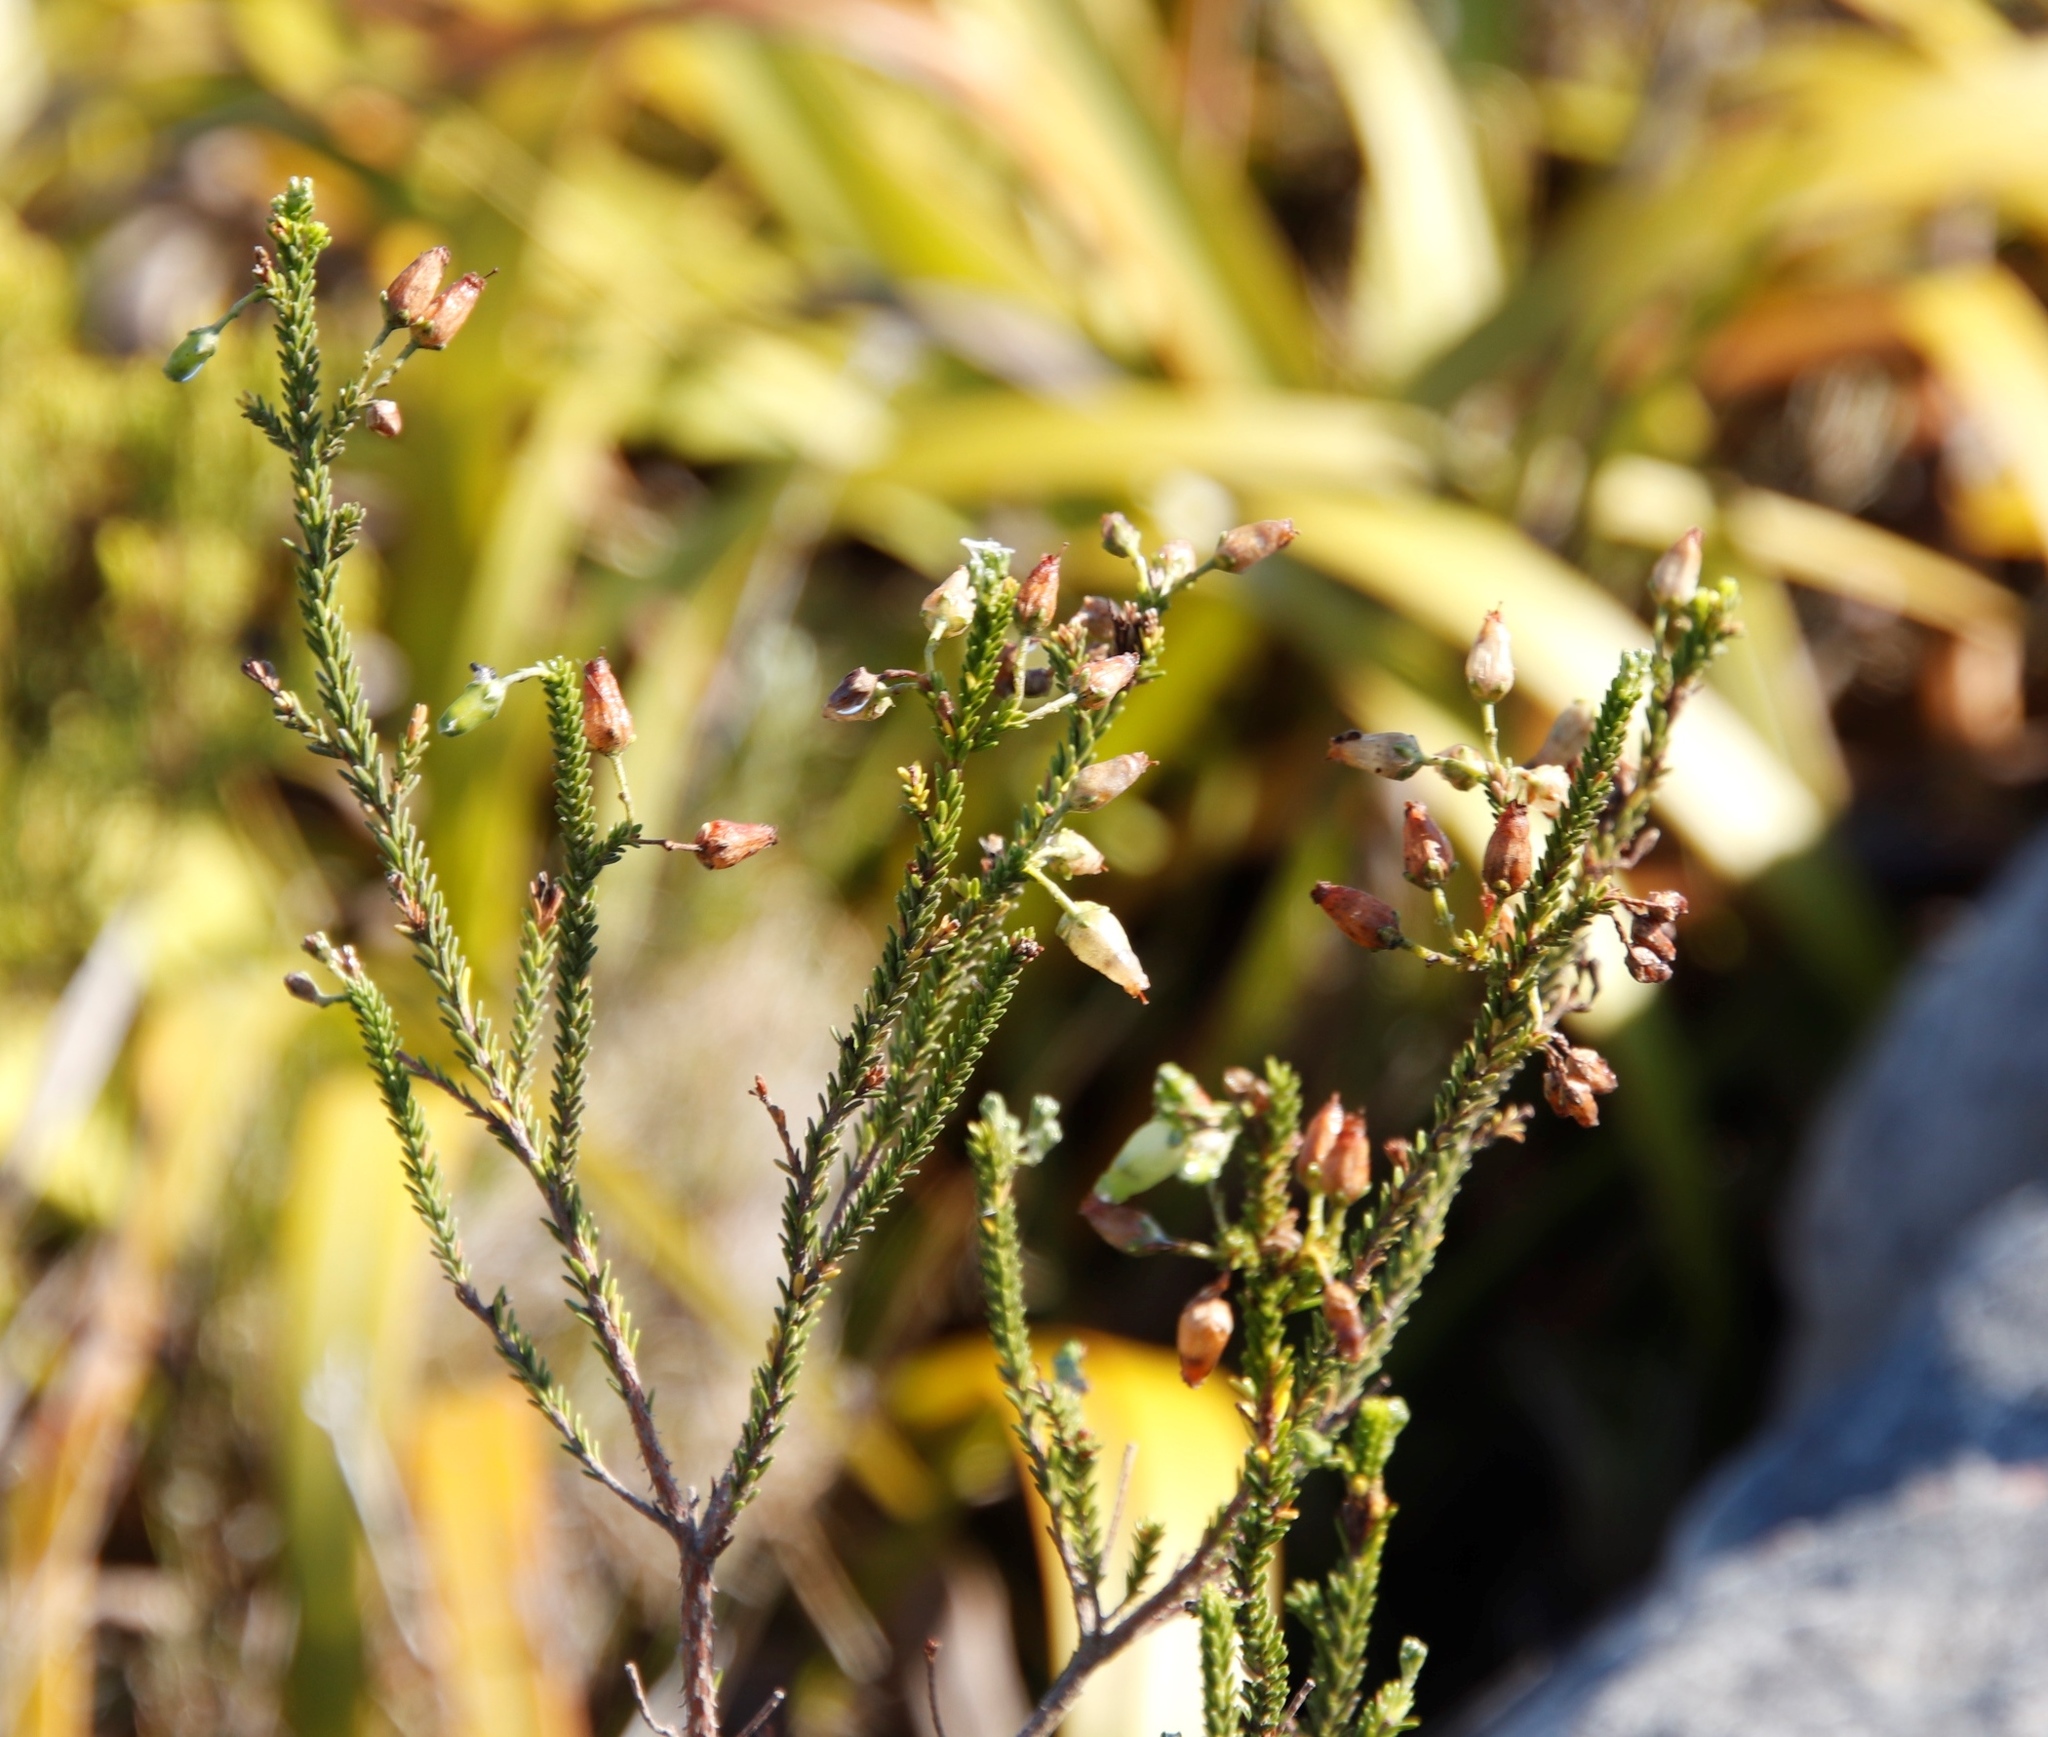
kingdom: Plantae
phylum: Tracheophyta
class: Magnoliopsida
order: Ericales
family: Ericaceae
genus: Erica
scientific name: Erica urna-viridis
